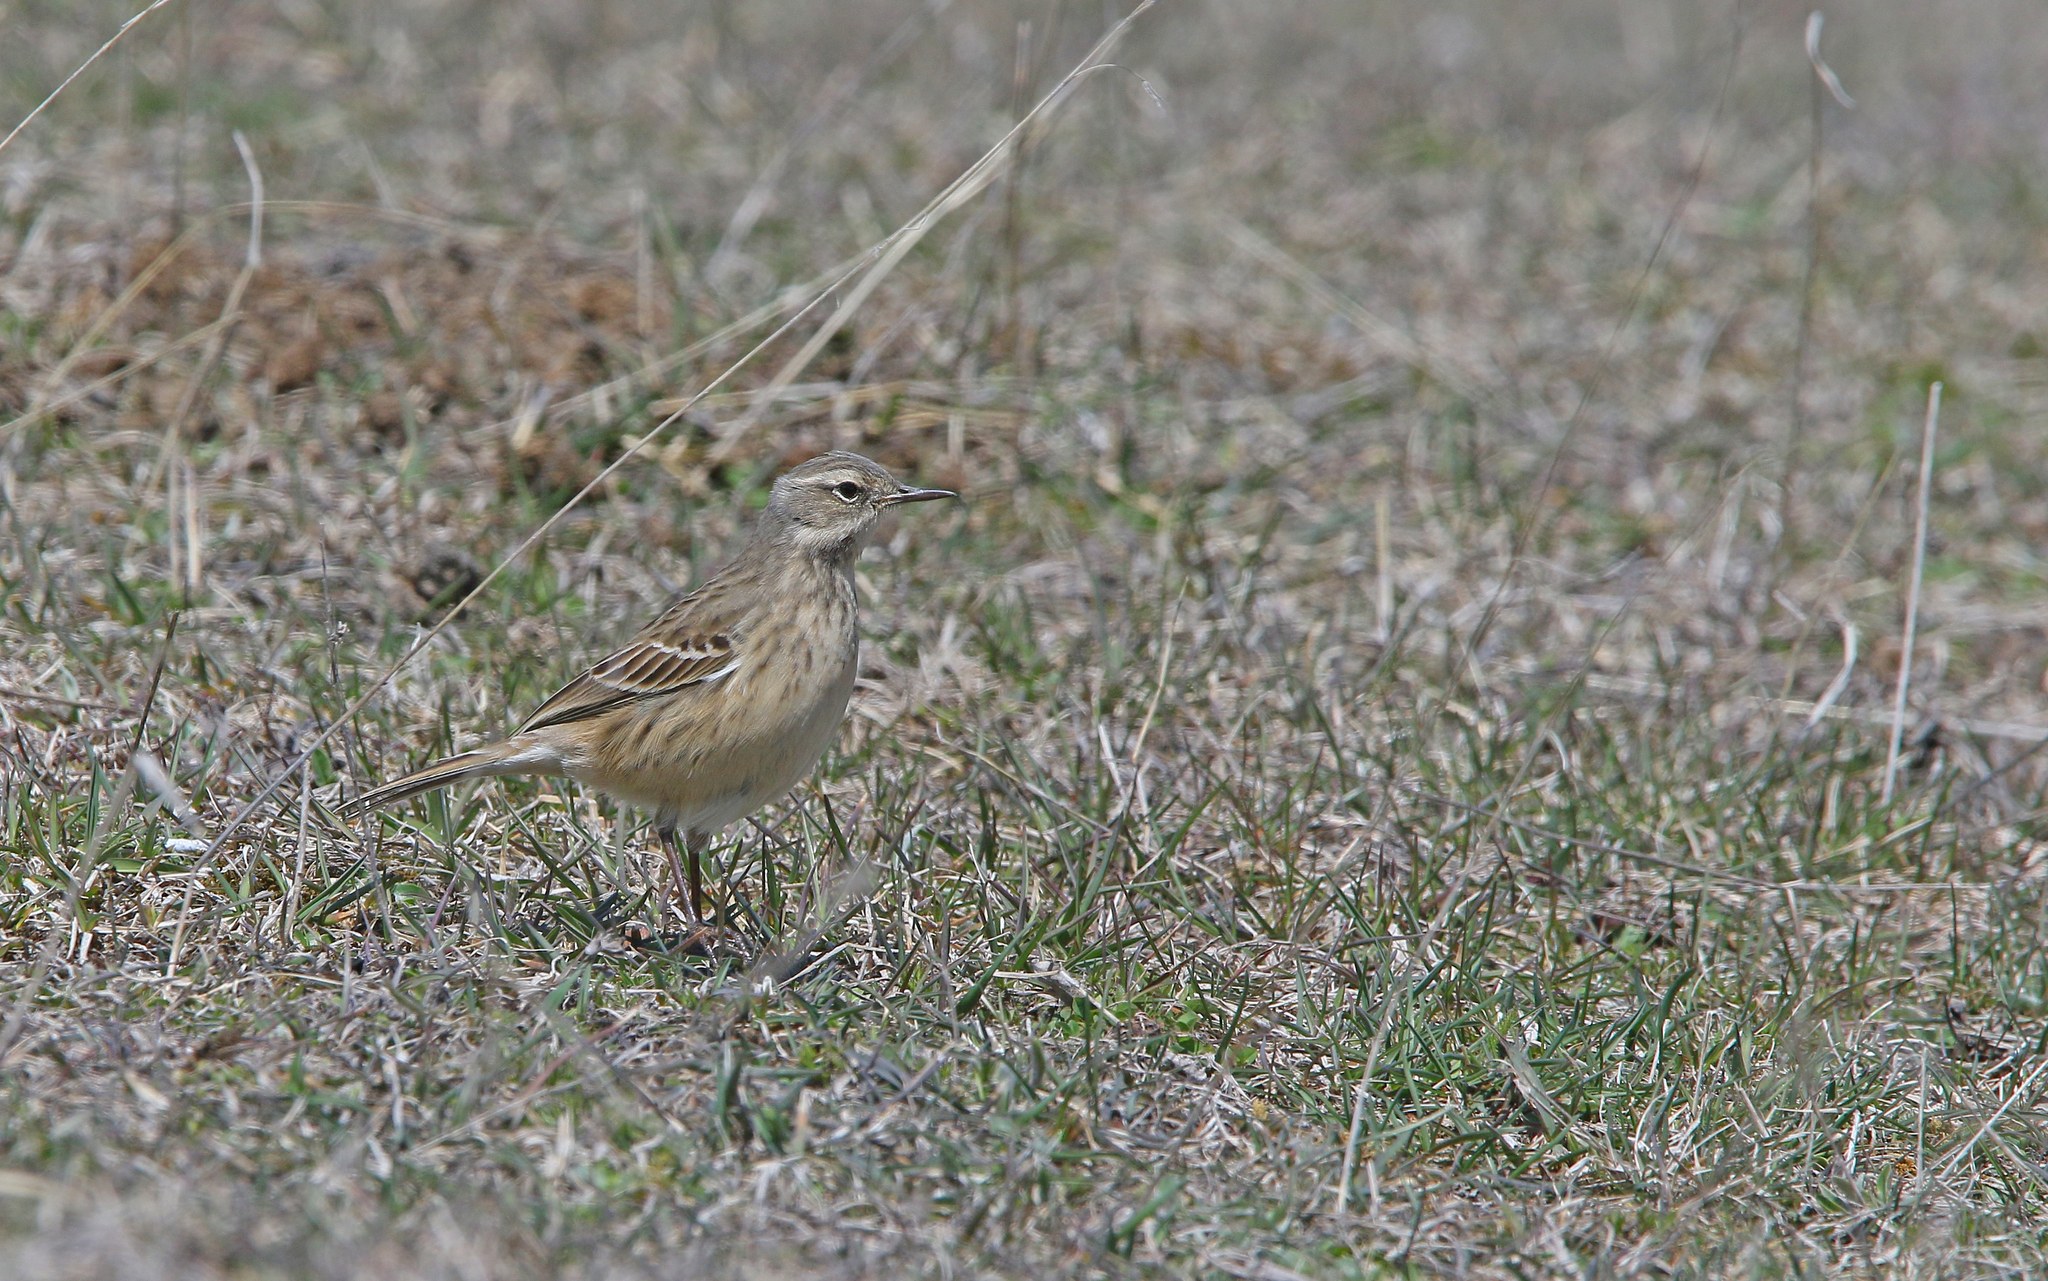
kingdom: Animalia
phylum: Chordata
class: Aves
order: Passeriformes
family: Motacillidae
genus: Anthus
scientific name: Anthus spinoletta
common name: Water pipit
